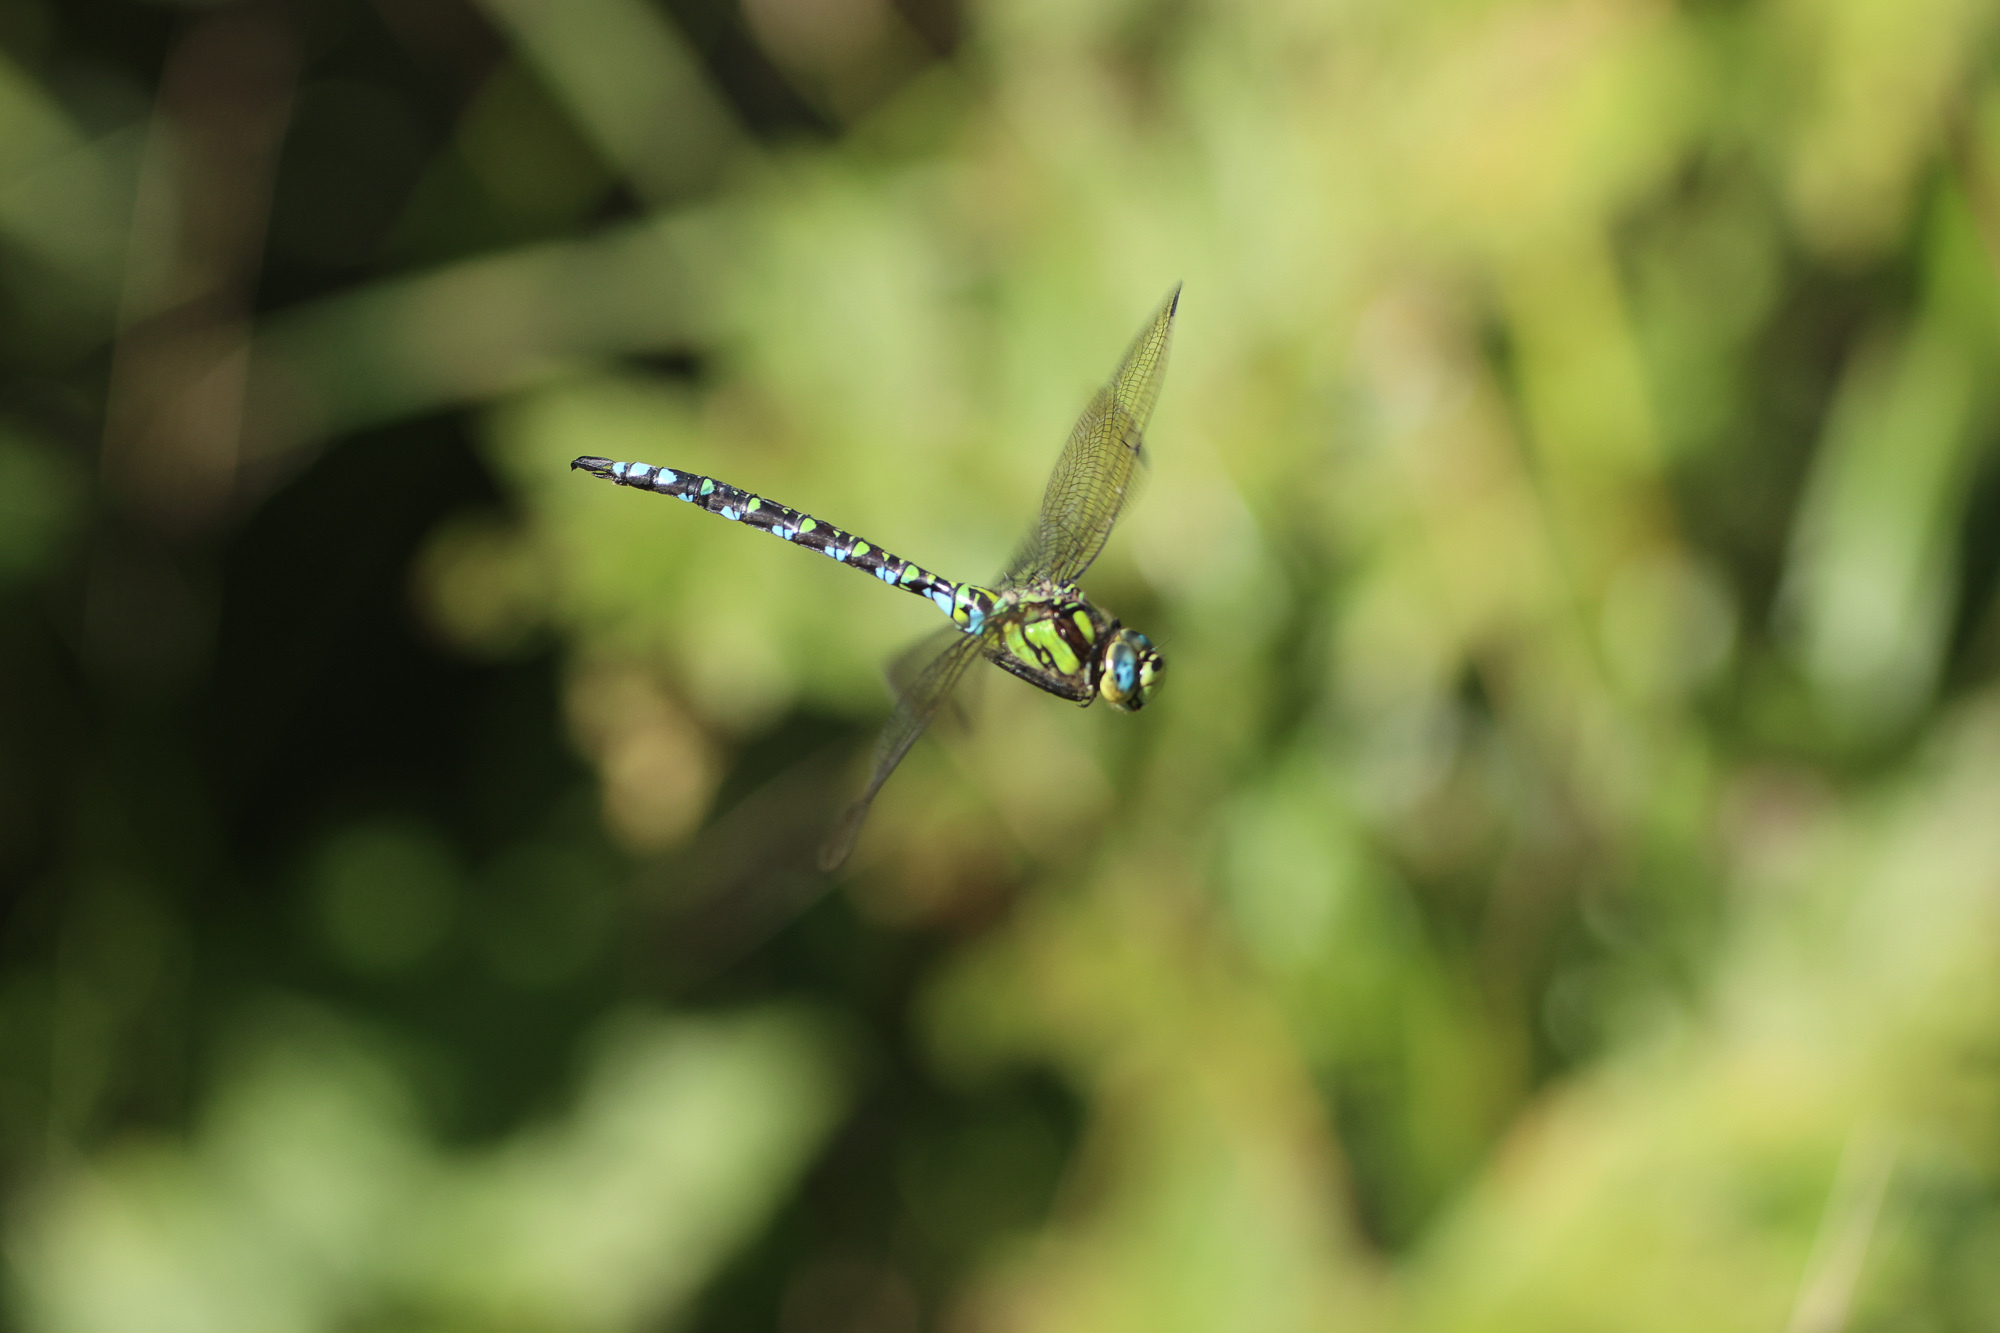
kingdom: Animalia
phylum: Arthropoda
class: Insecta
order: Odonata
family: Aeshnidae
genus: Aeshna
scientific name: Aeshna cyanea
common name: Southern hawker
